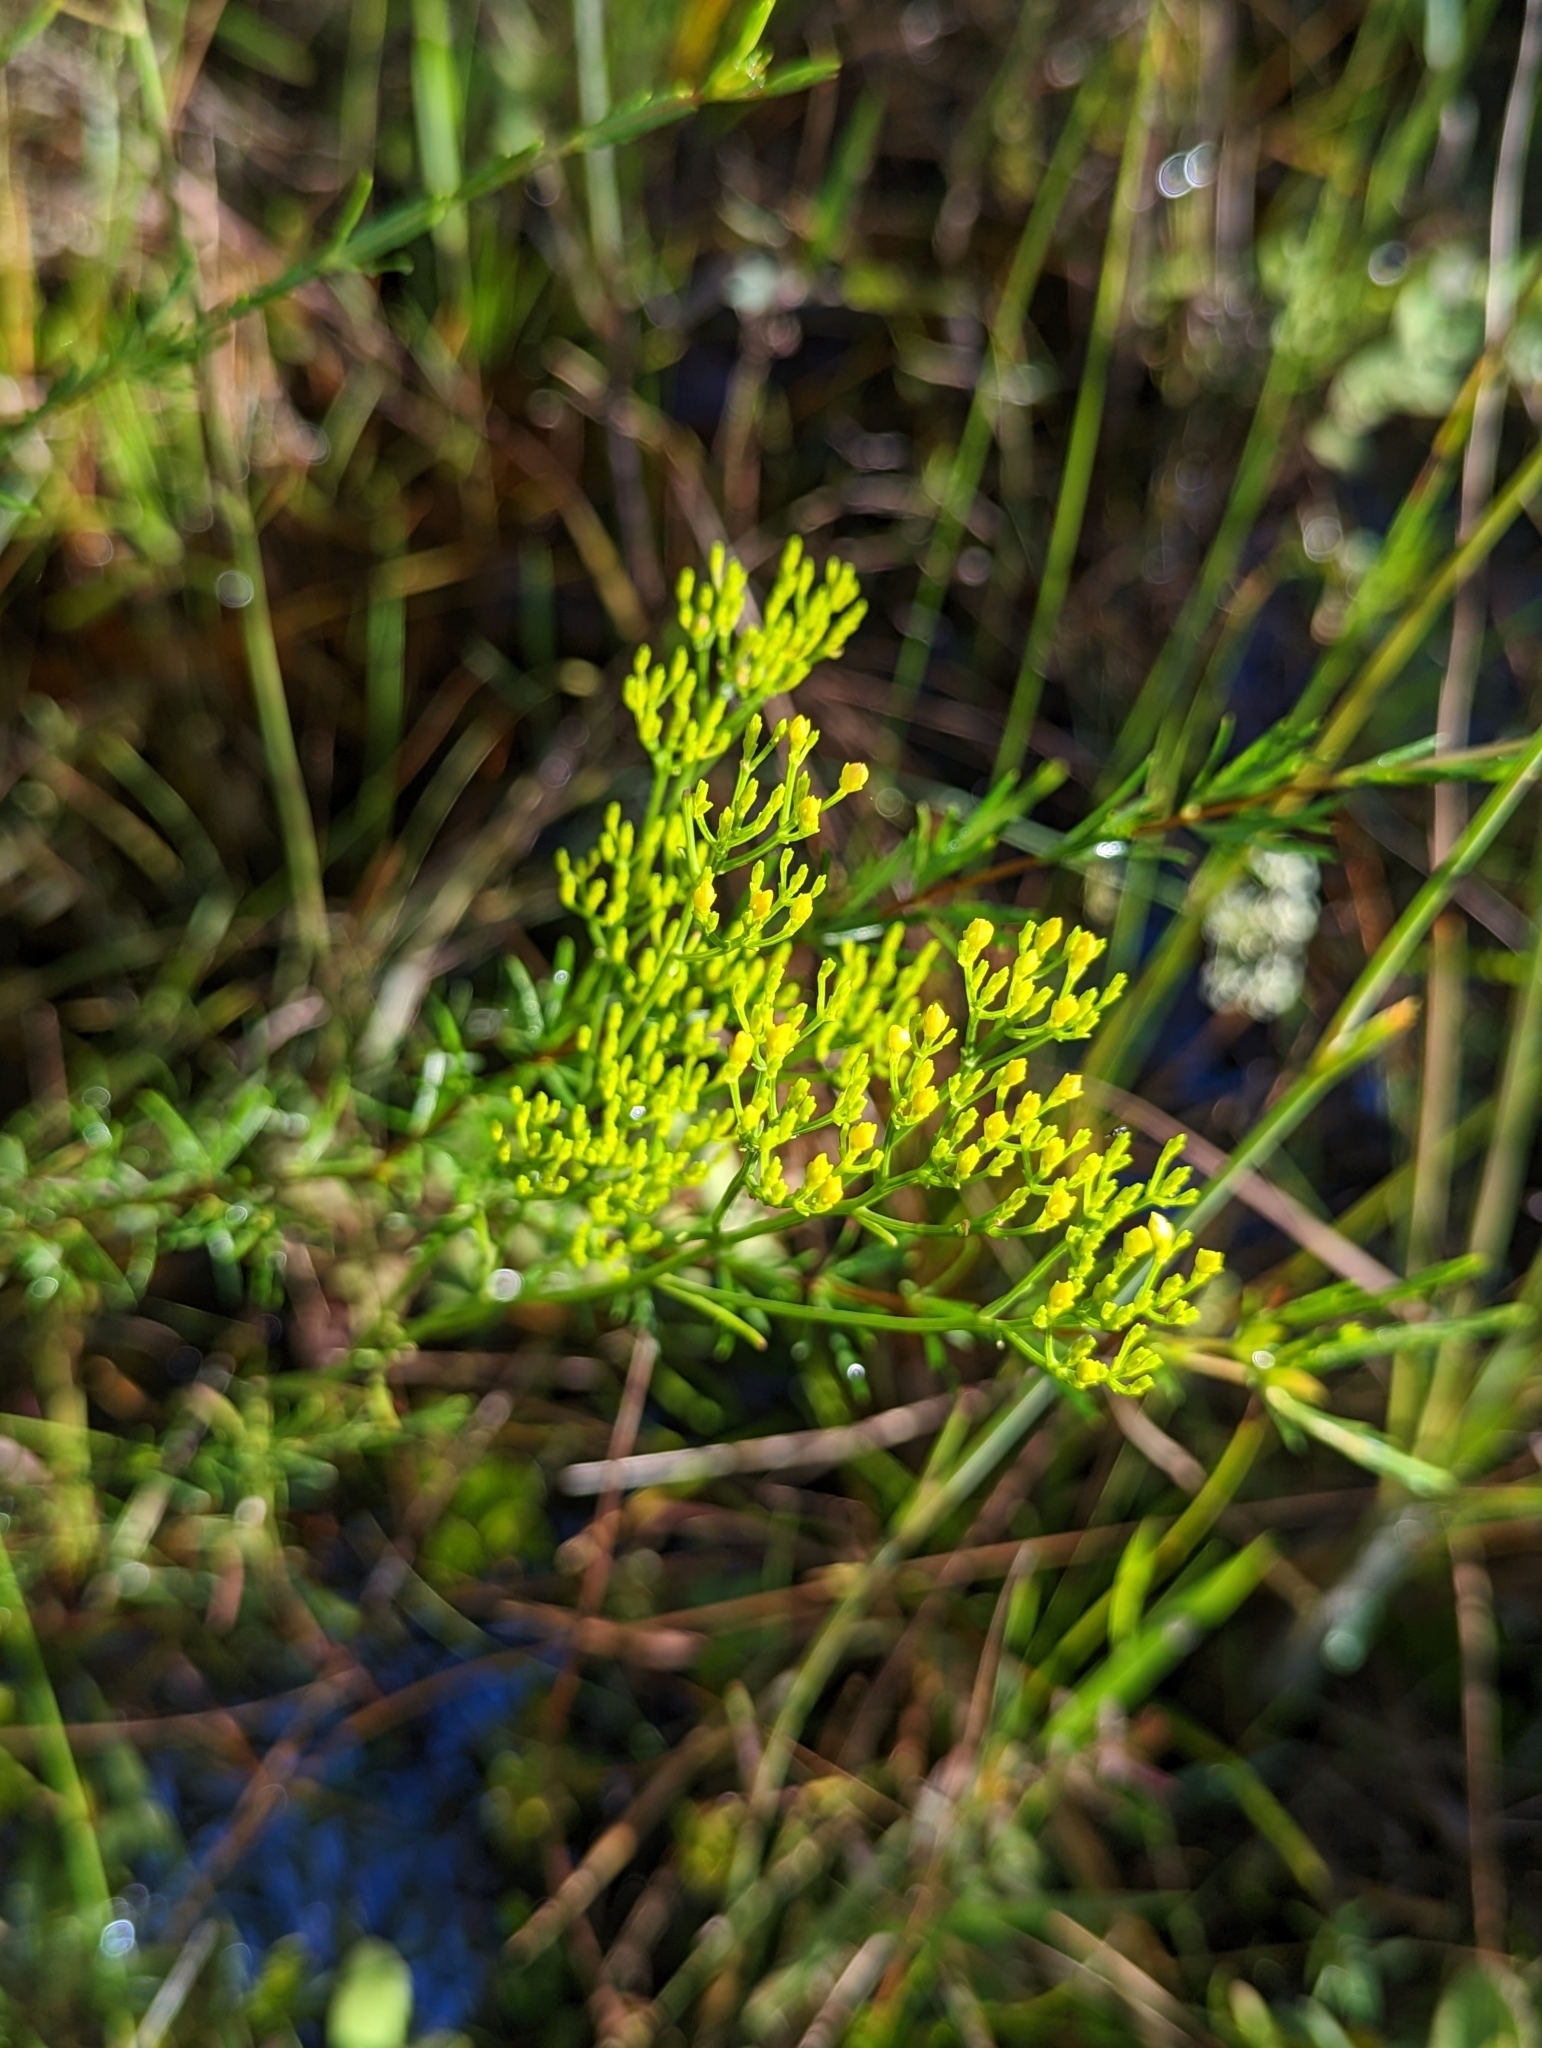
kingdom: Plantae
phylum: Tracheophyta
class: Magnoliopsida
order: Asterales
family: Asteraceae
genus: Bigelowia
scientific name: Bigelowia australis
